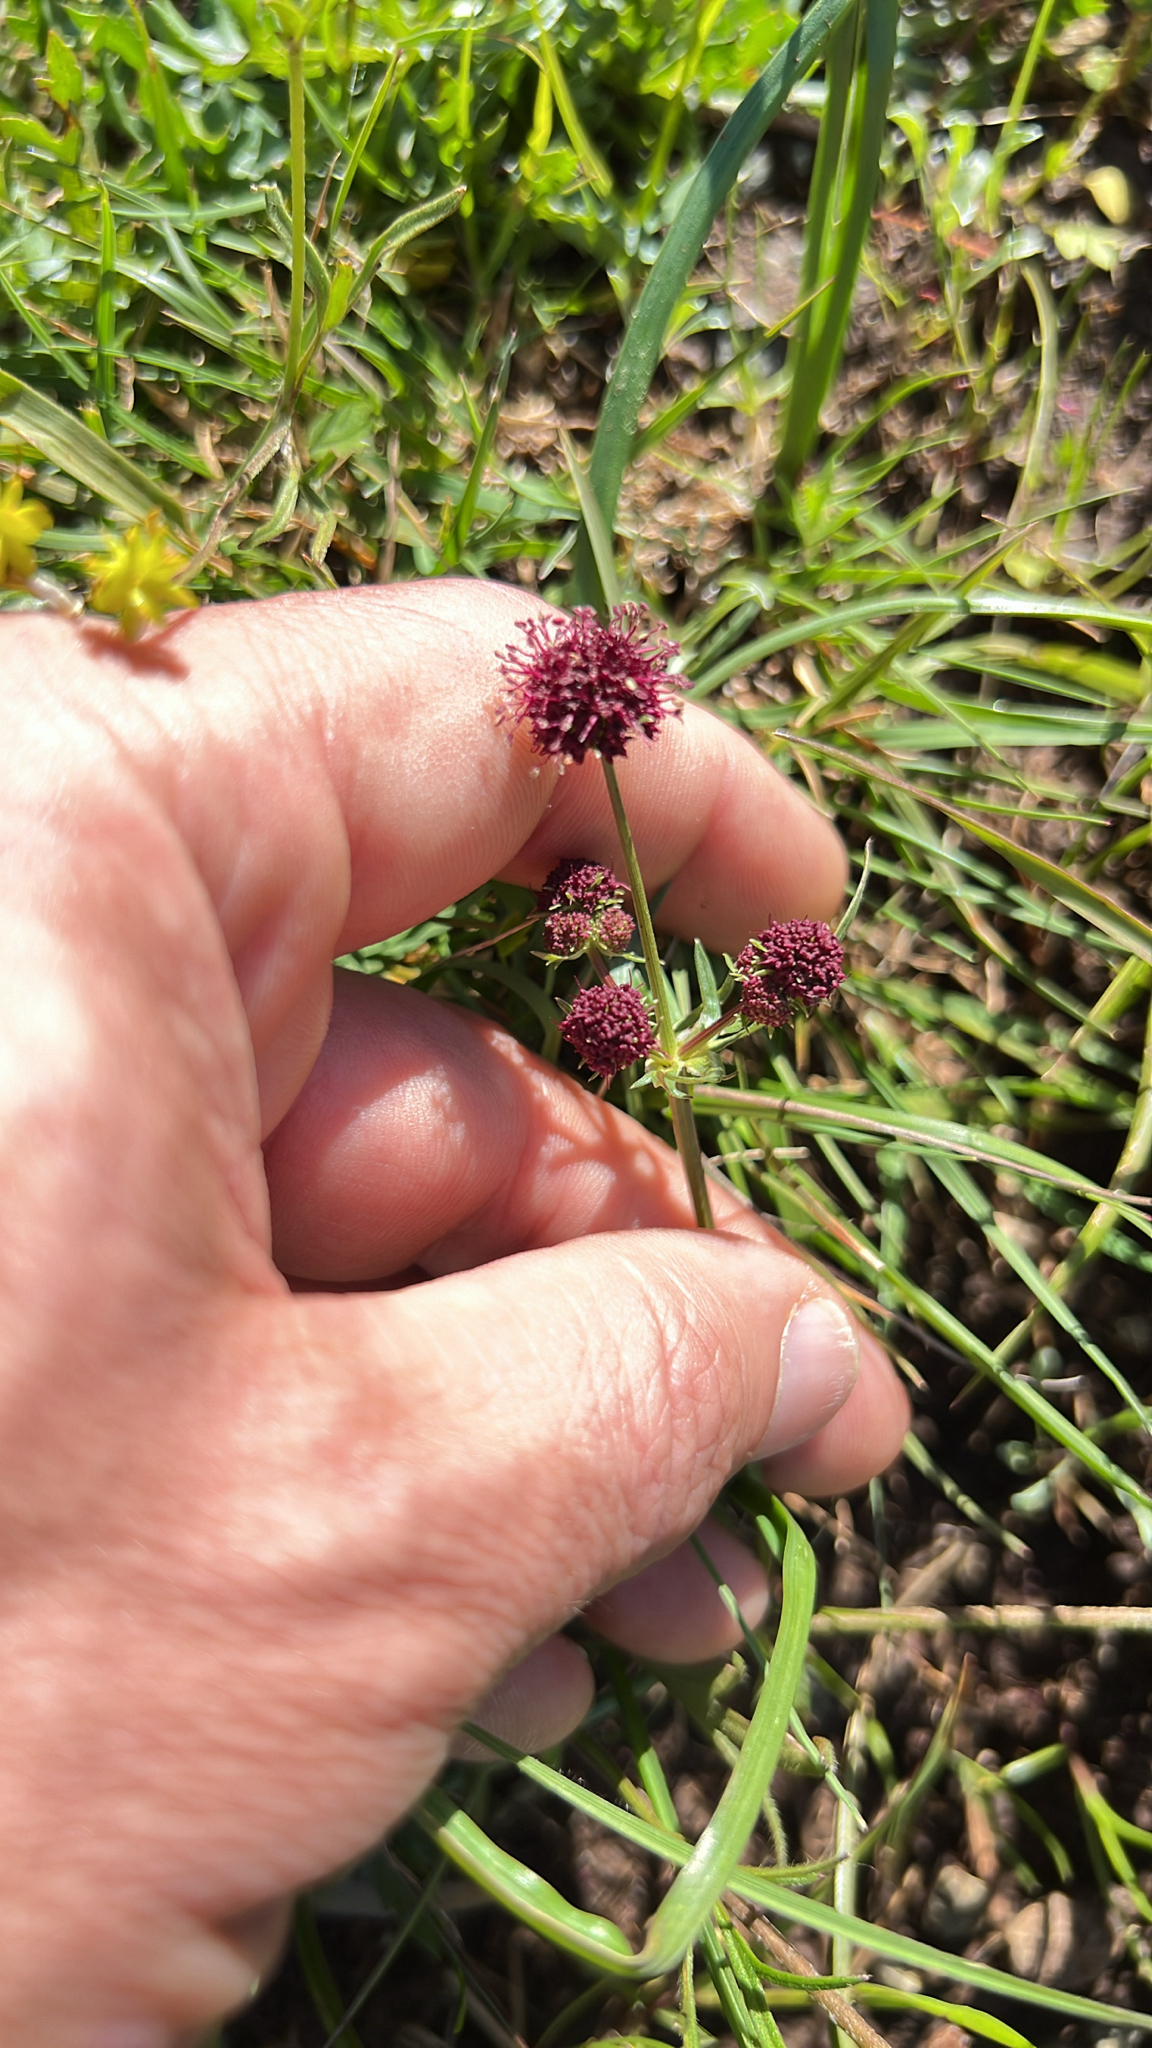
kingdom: Plantae
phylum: Tracheophyta
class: Magnoliopsida
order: Apiales
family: Apiaceae
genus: Sanicula
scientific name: Sanicula bipinnatifida
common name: Shoe-buttons
